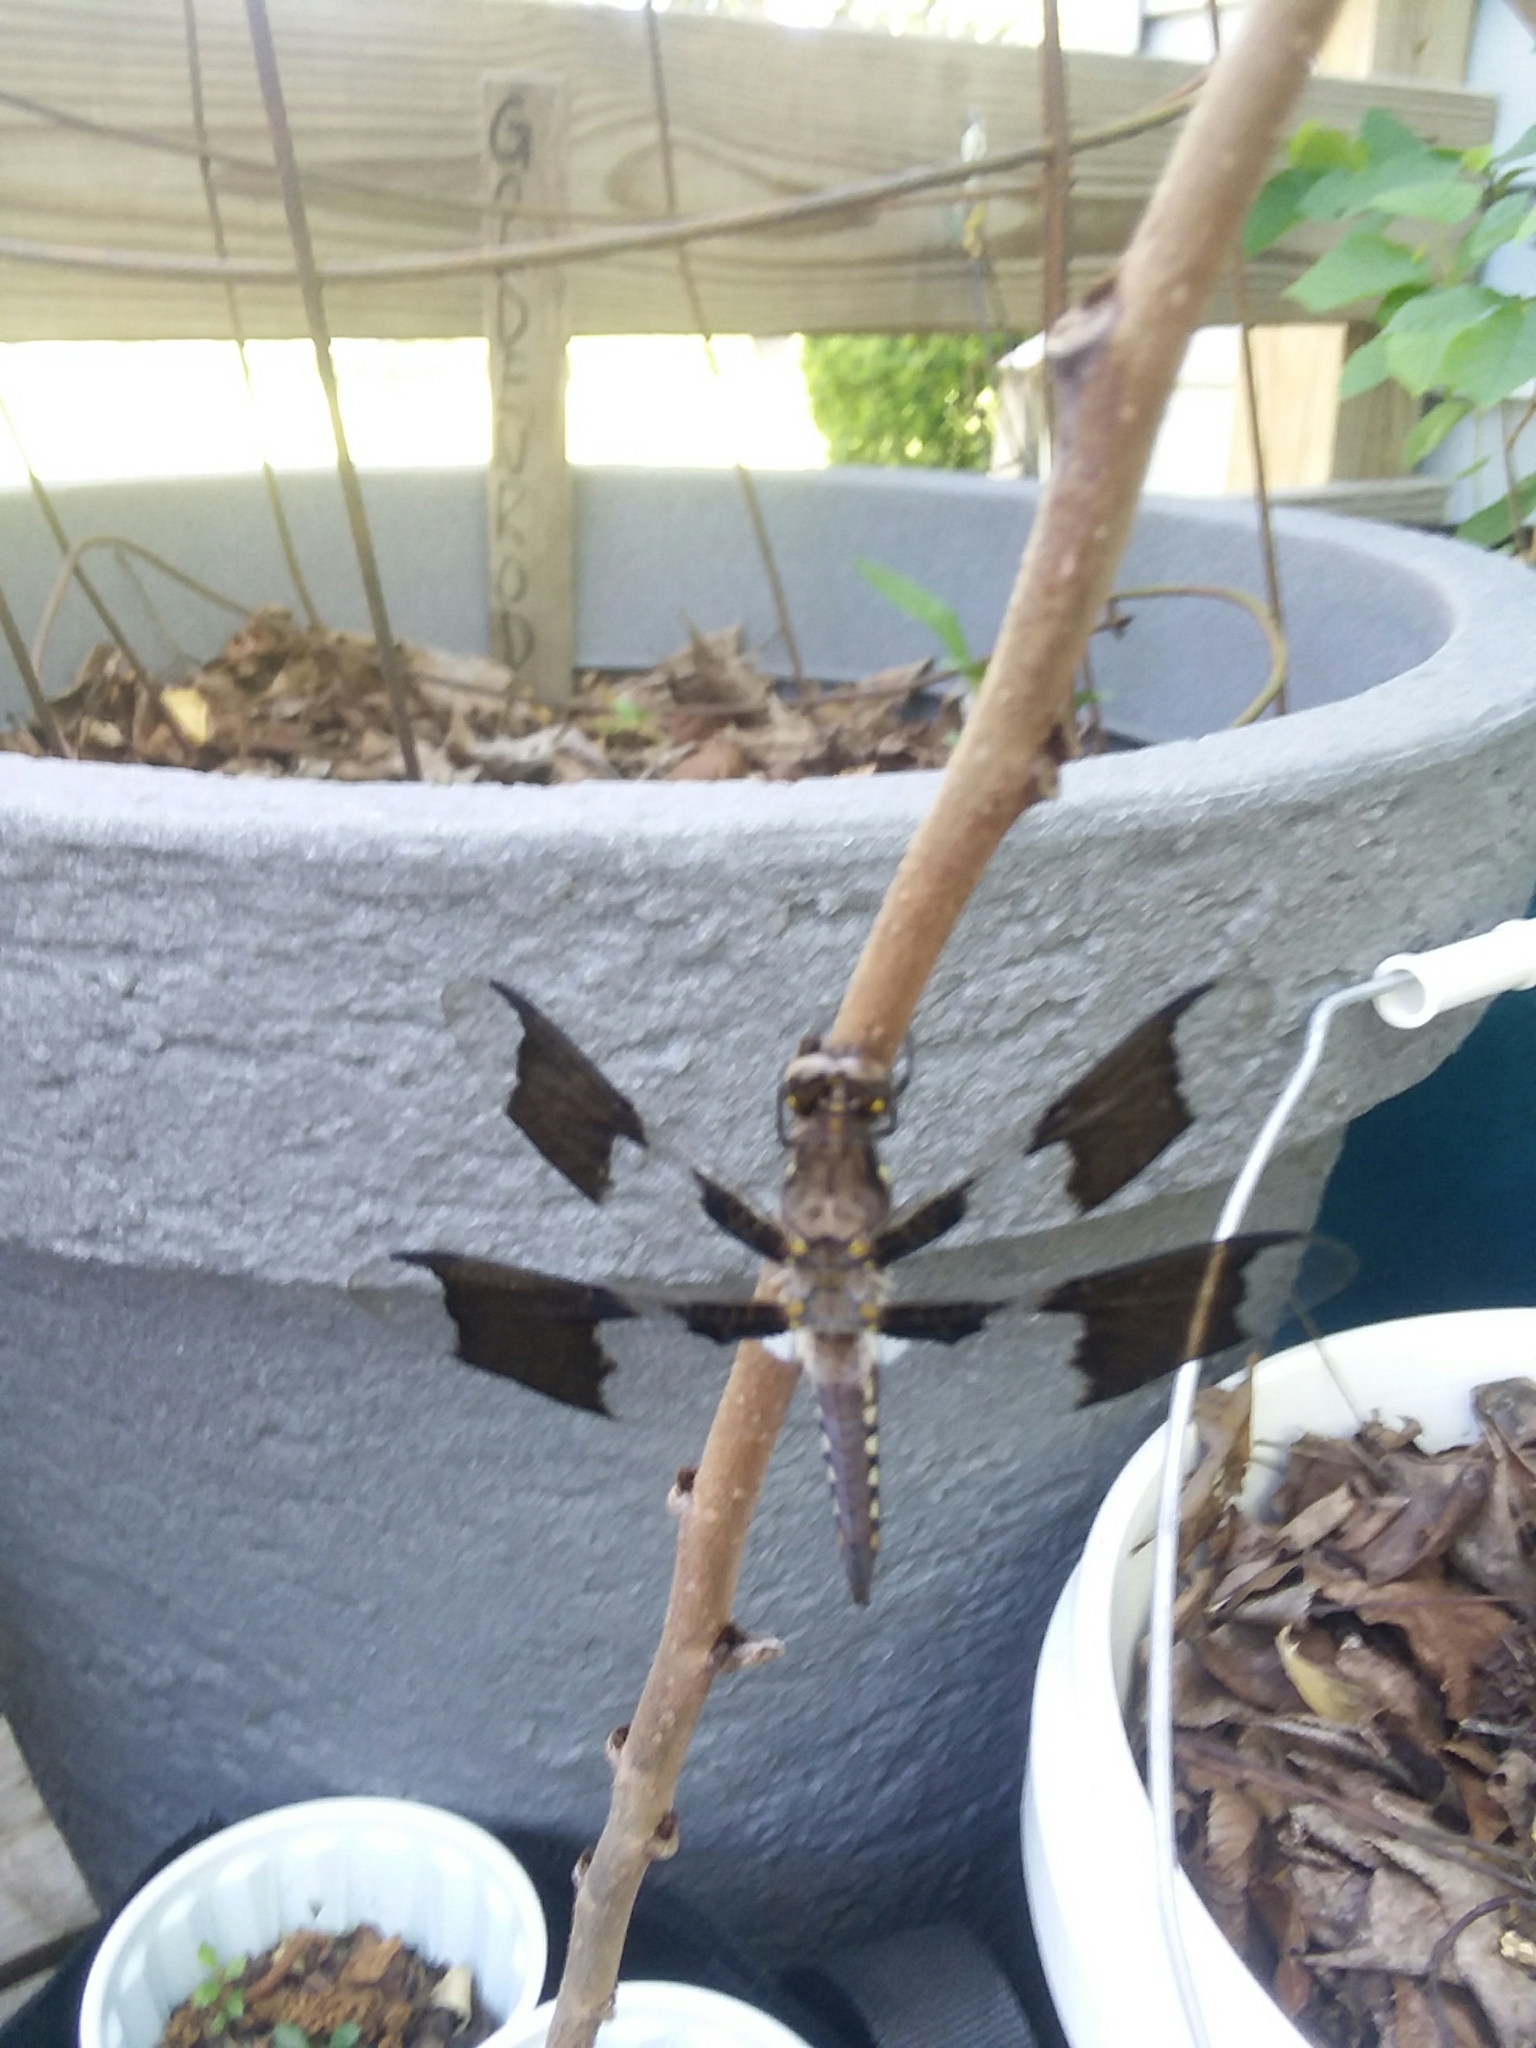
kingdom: Animalia
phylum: Arthropoda
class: Insecta
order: Odonata
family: Libellulidae
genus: Plathemis
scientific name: Plathemis lydia
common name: Common whitetail
